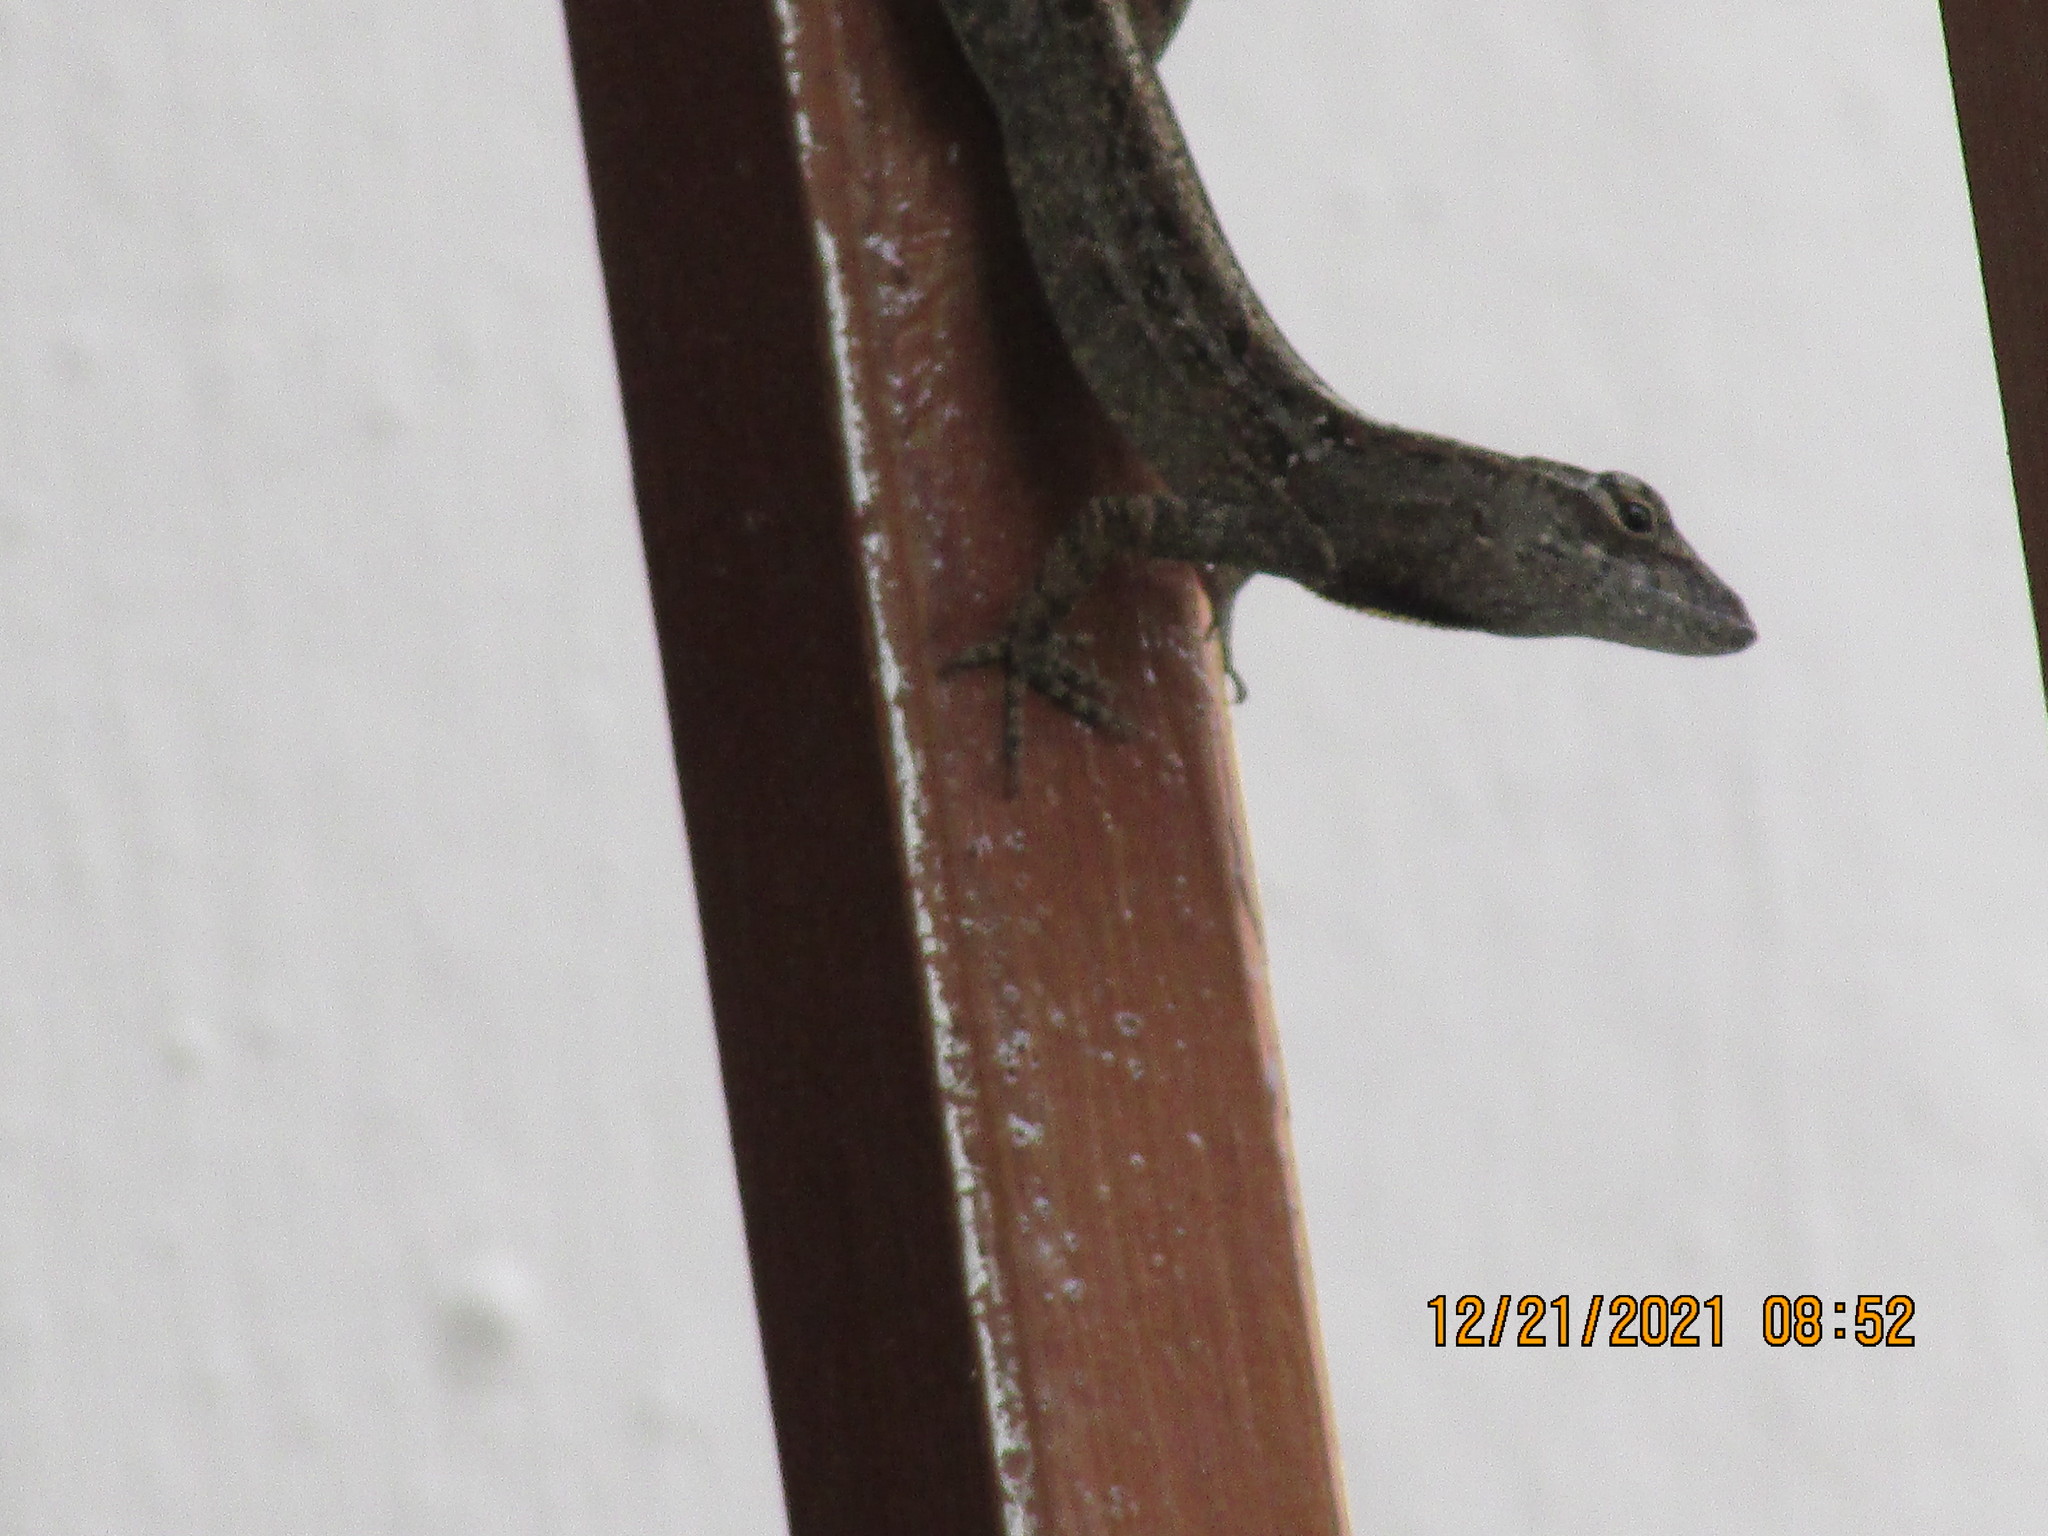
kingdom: Animalia
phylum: Chordata
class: Squamata
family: Dactyloidae
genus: Anolis
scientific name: Anolis sagrei
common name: Brown anole
